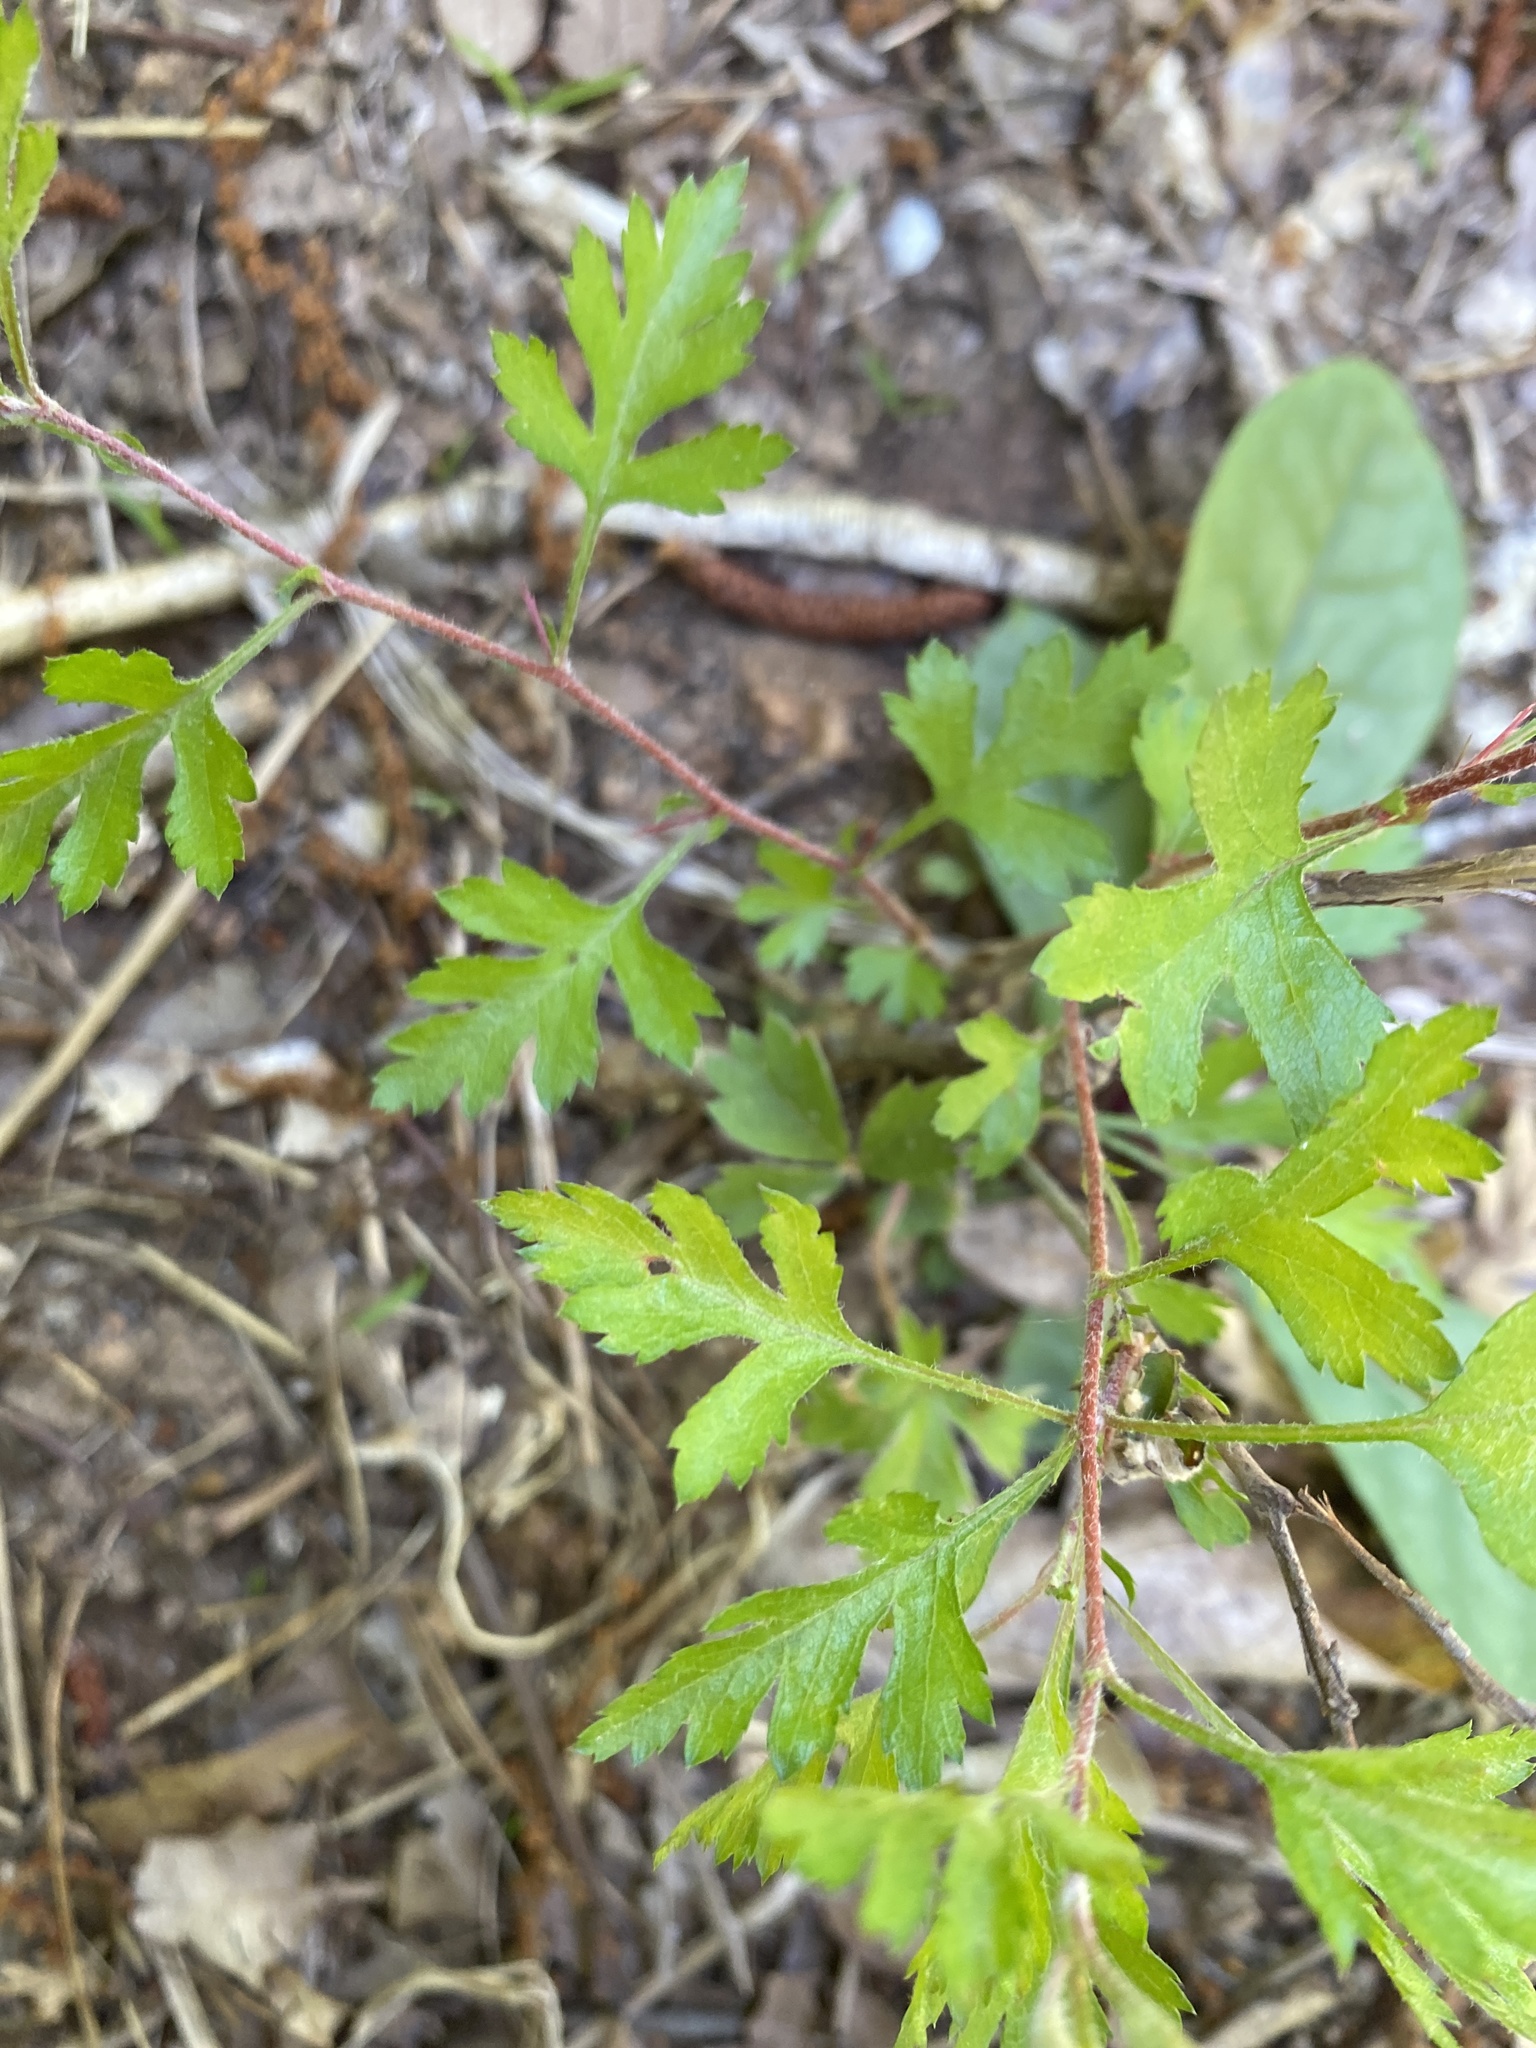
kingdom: Plantae
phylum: Tracheophyta
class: Magnoliopsida
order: Rosales
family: Rosaceae
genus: Crataegus
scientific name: Crataegus marshallii
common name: Parsley-hawthorn
